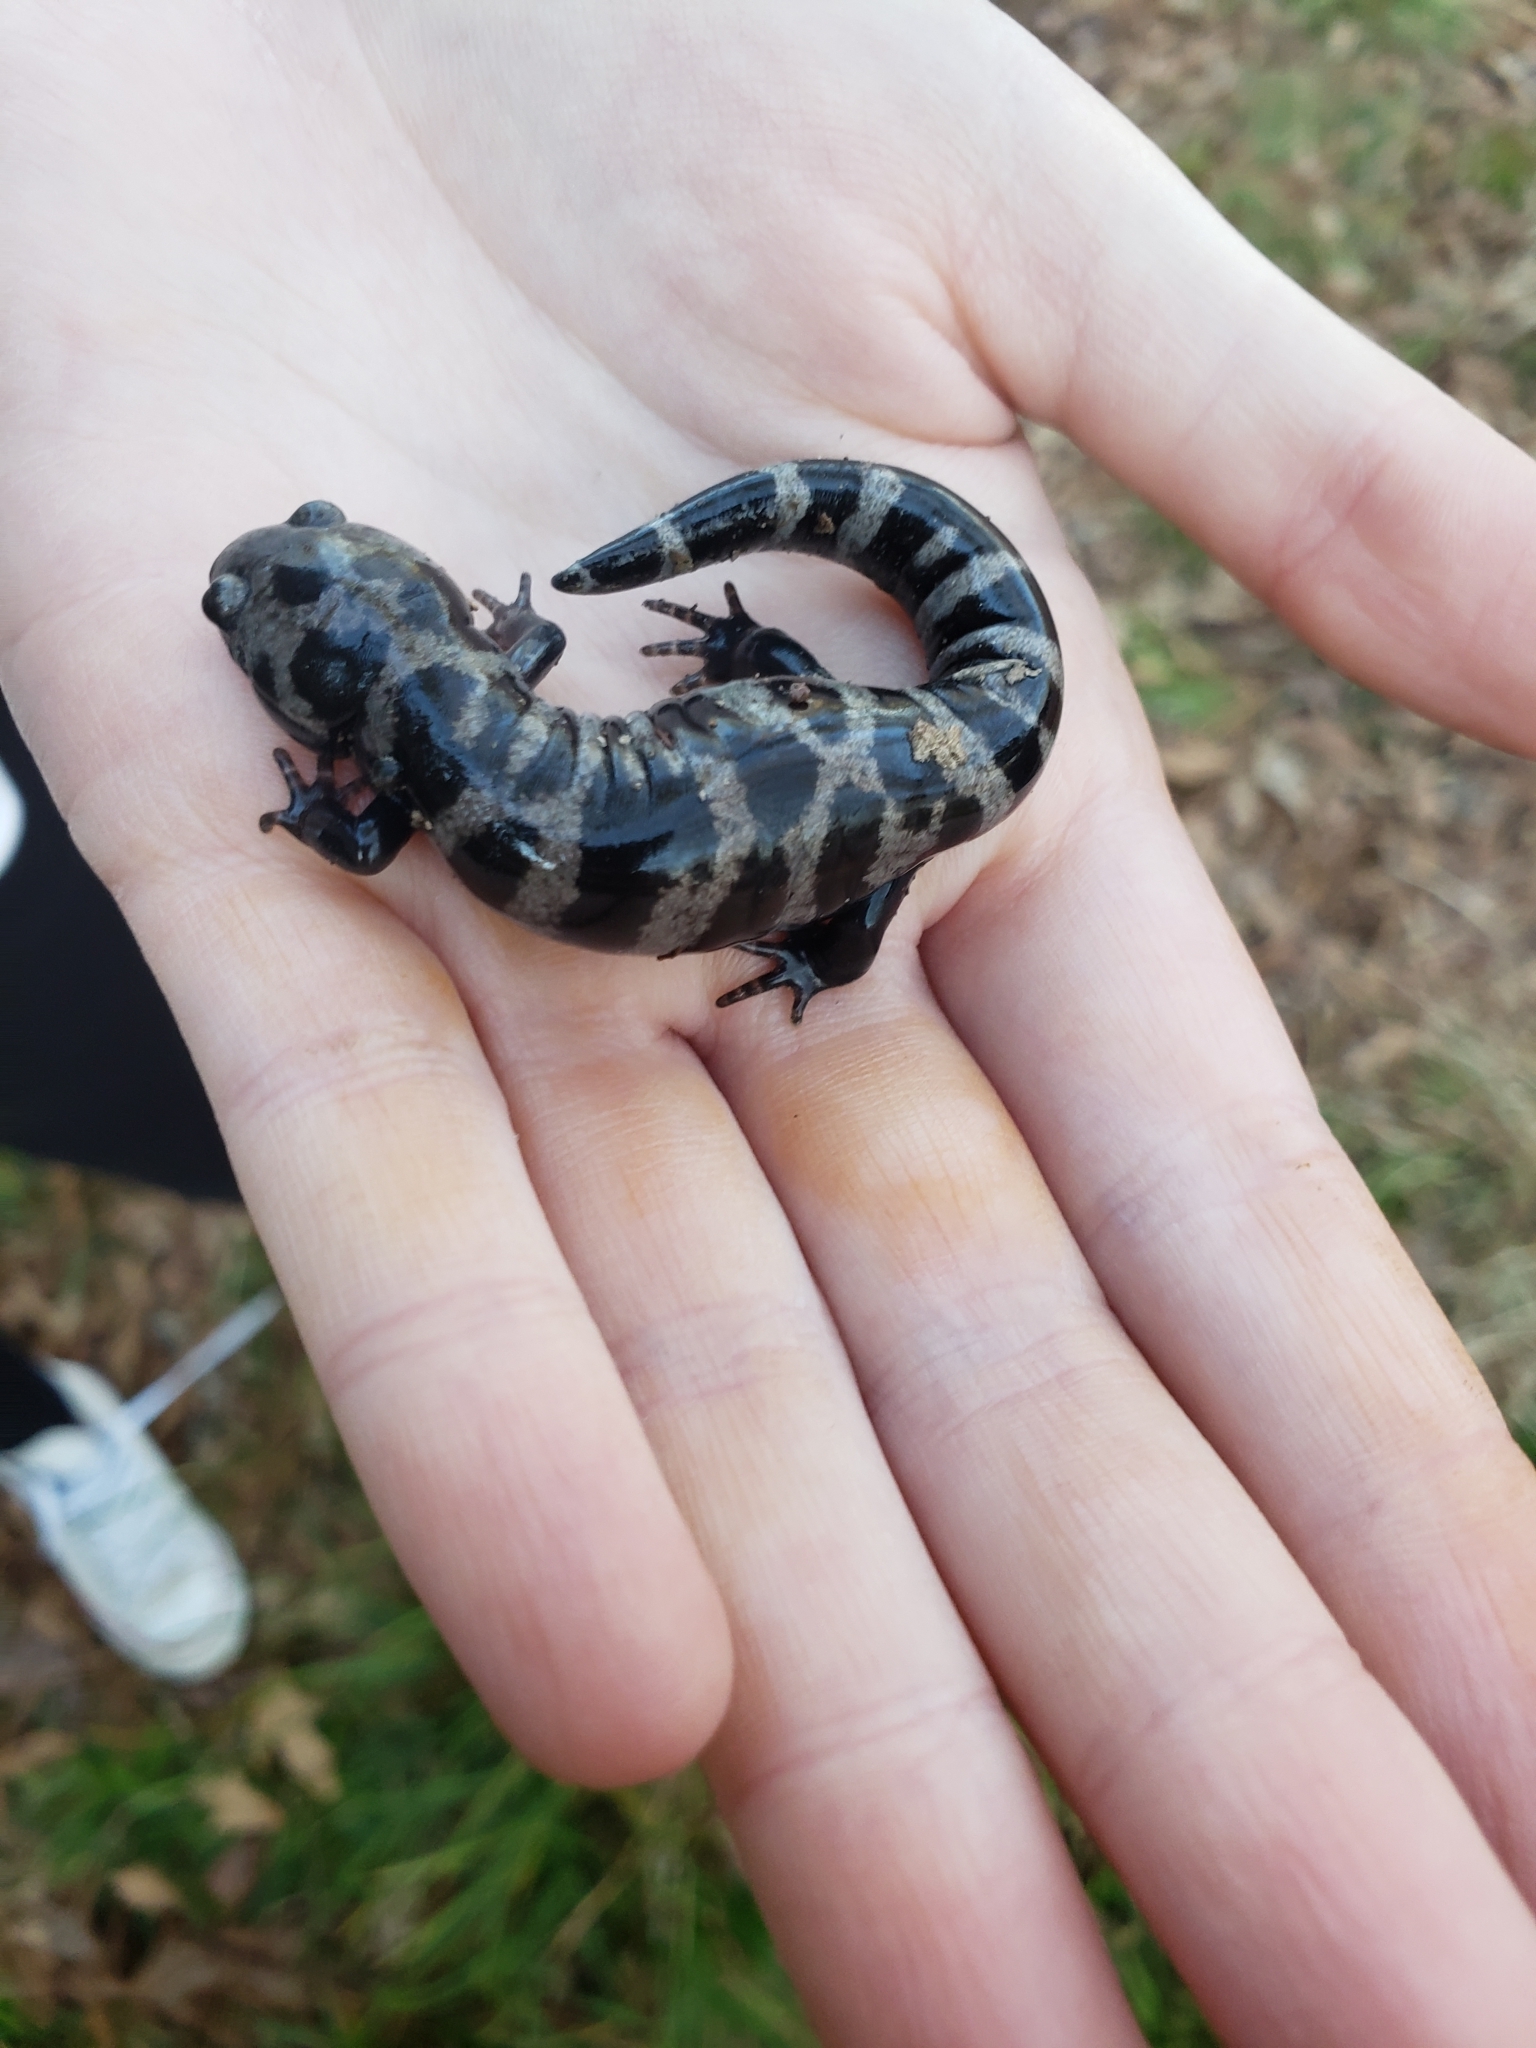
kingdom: Animalia
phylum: Chordata
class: Amphibia
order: Caudata
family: Ambystomatidae
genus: Ambystoma
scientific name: Ambystoma opacum
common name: Marbled salamander
